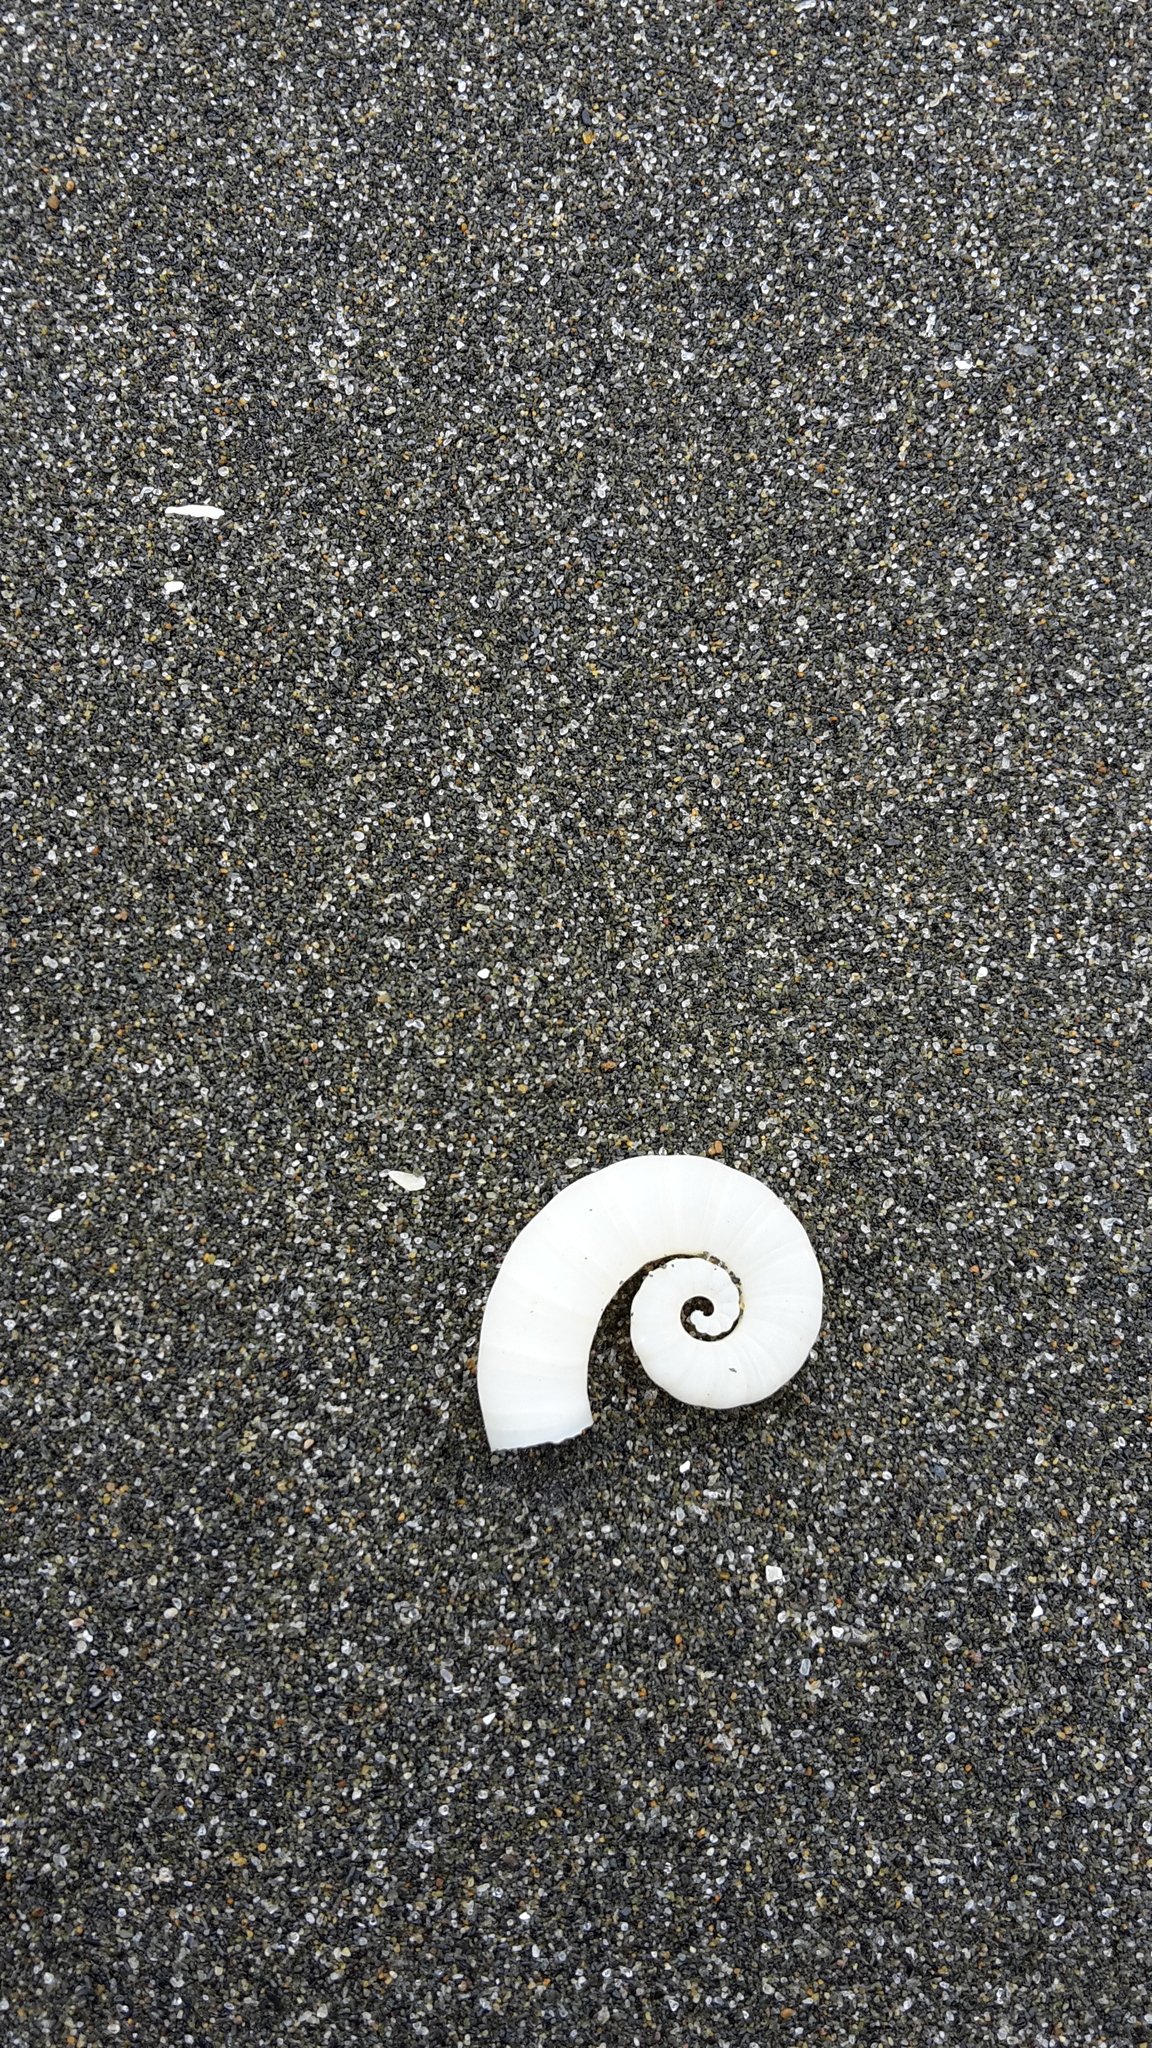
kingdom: Animalia
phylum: Mollusca
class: Cephalopoda
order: Spirulida
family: Spirulidae
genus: Spirula
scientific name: Spirula spirula
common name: Ram's horn squid
